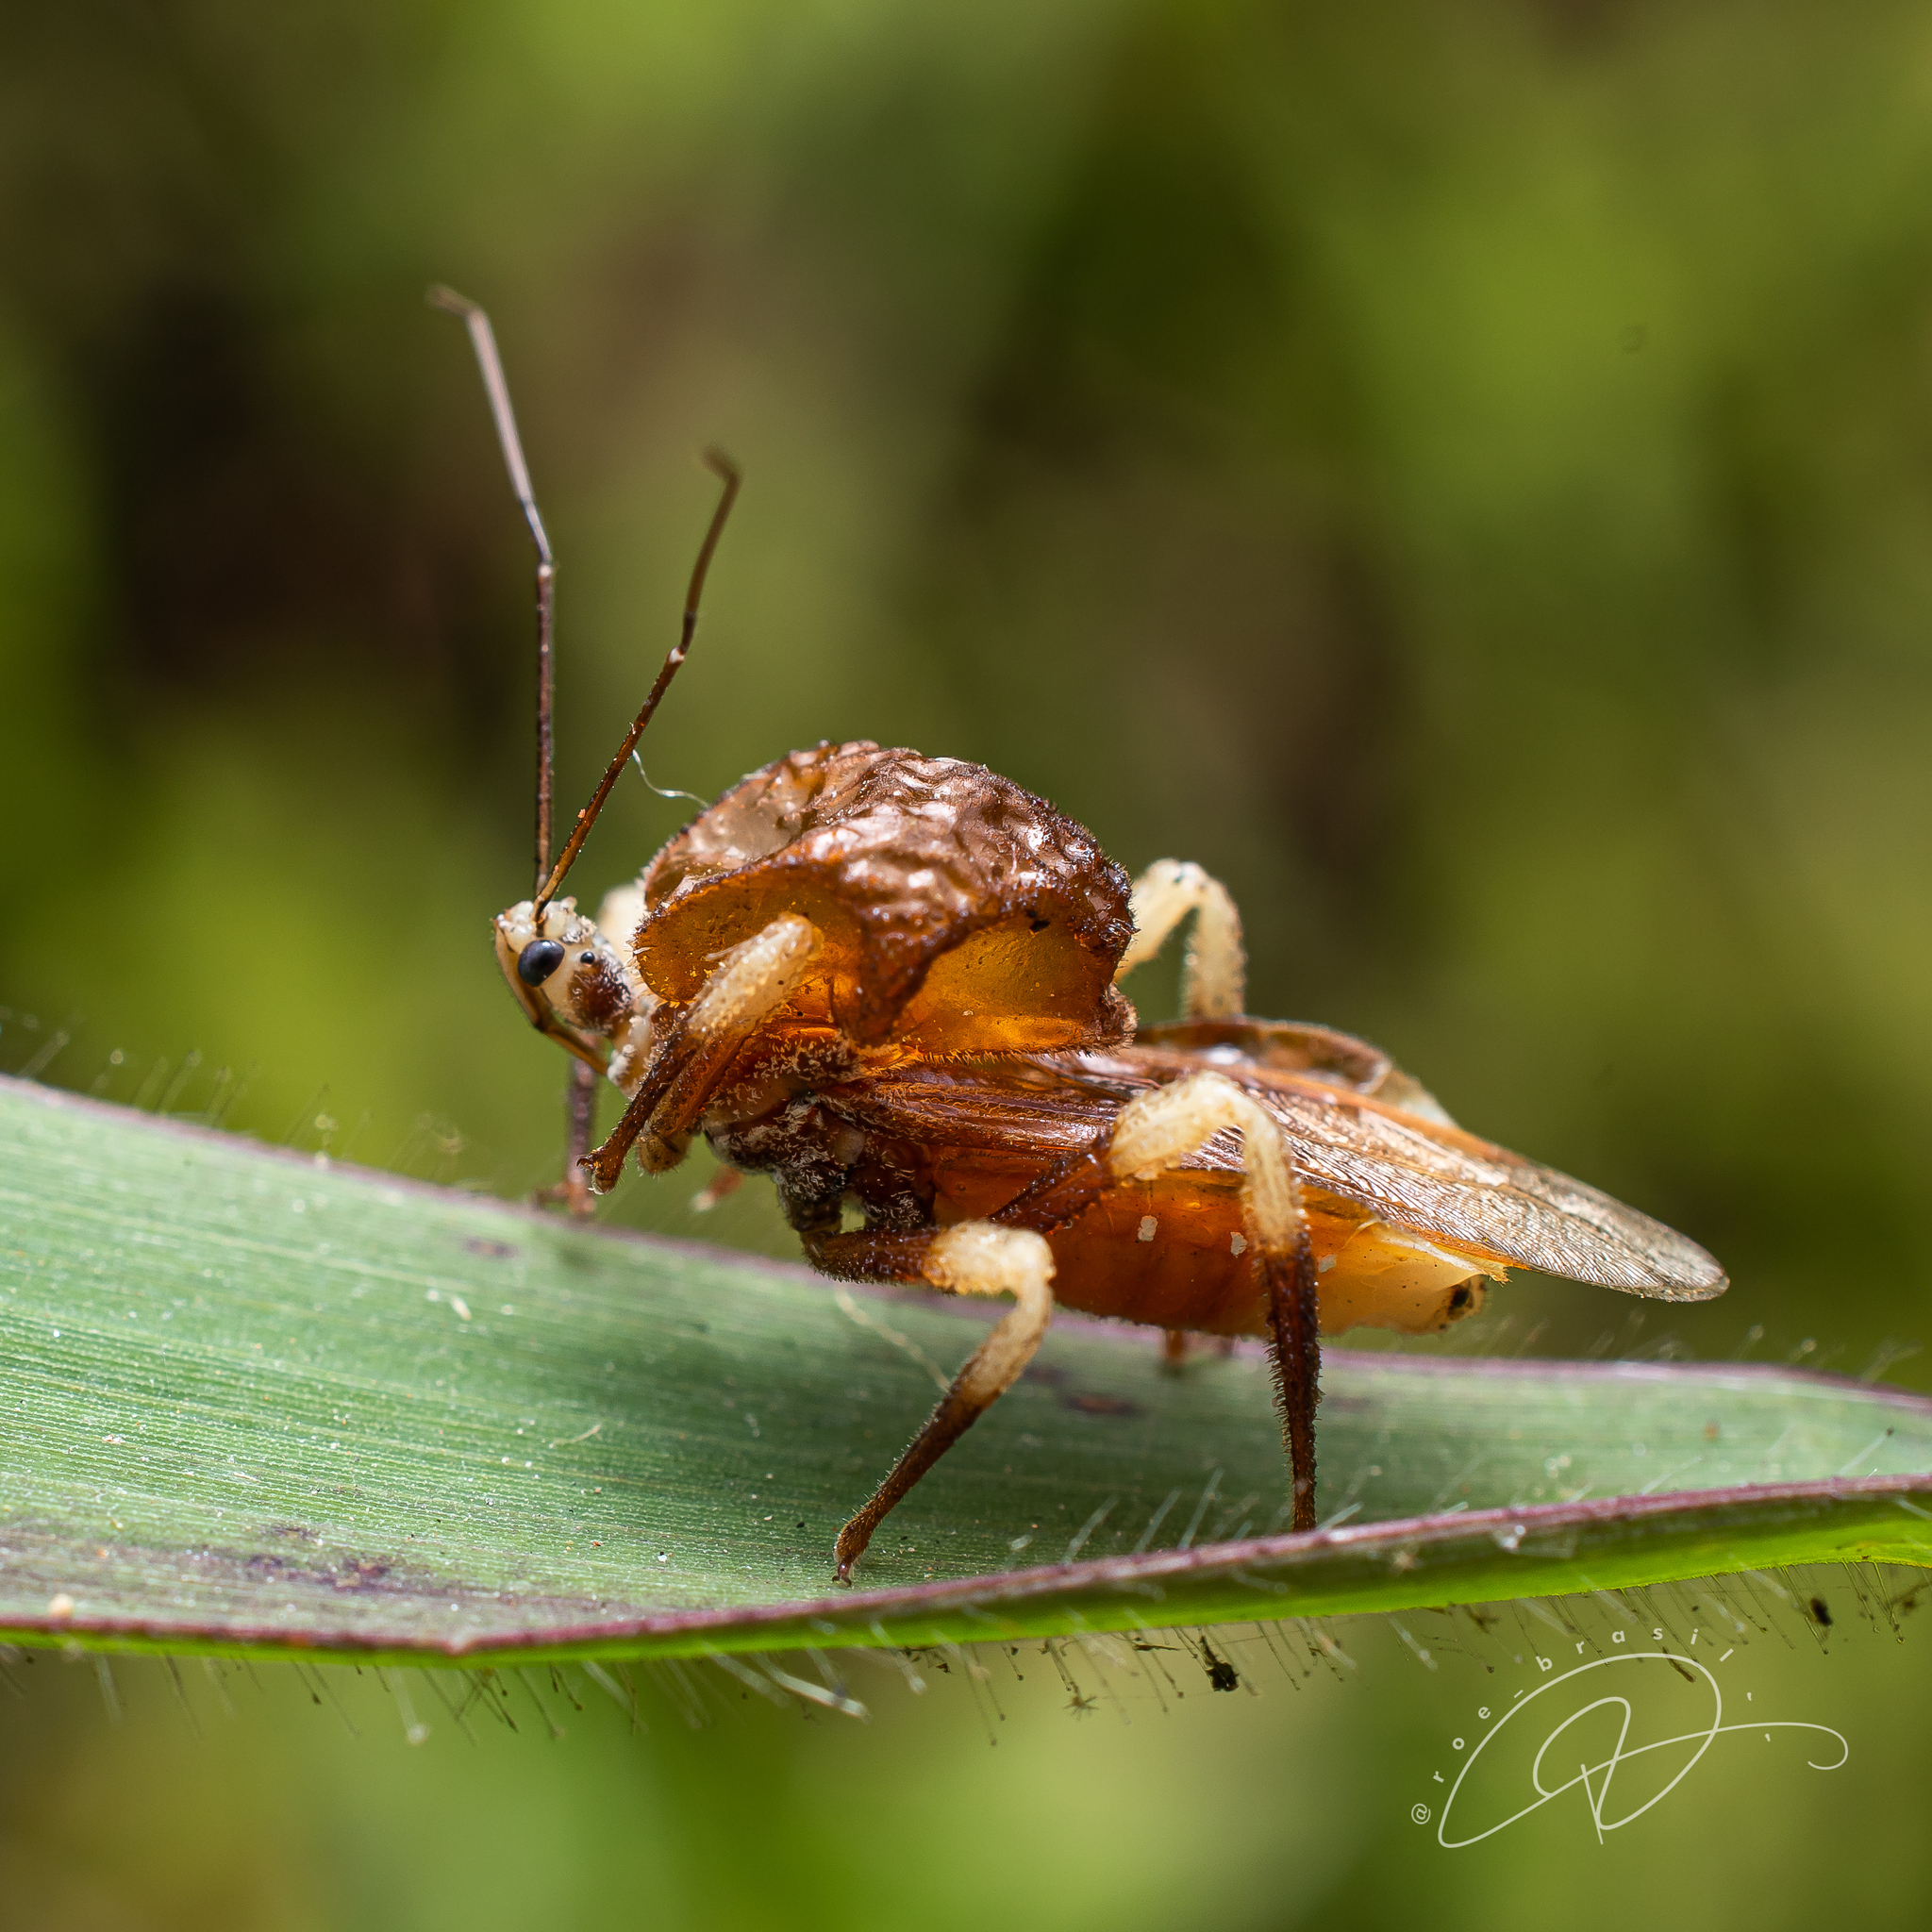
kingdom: Animalia
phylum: Arthropoda
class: Insecta
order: Hemiptera
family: Reduviidae
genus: Notocyrtus
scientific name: Notocyrtus inflatus
